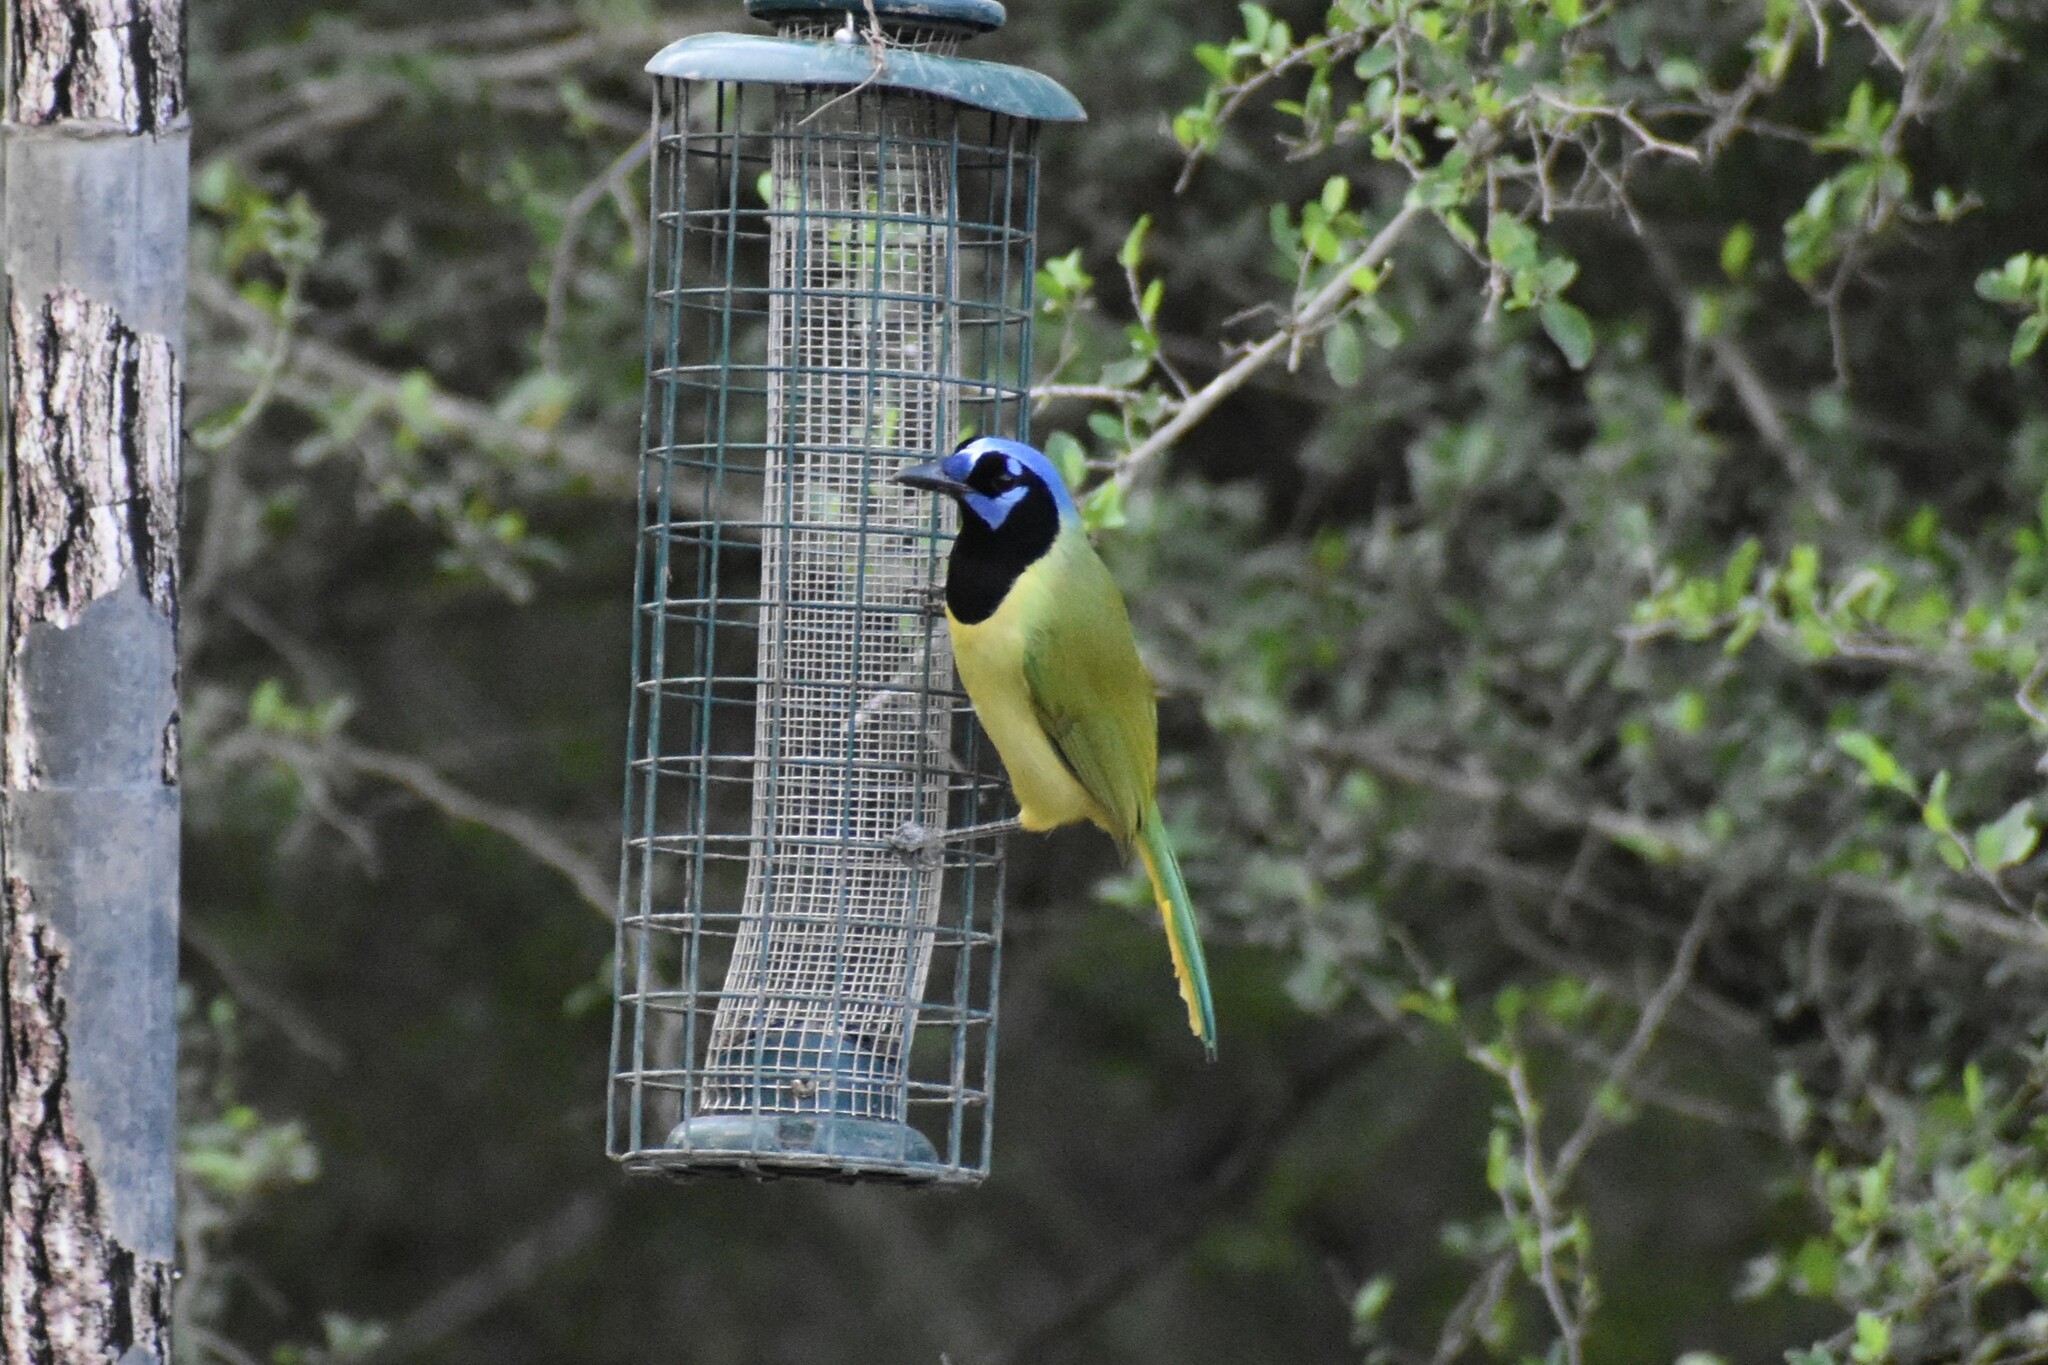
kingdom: Animalia
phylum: Chordata
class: Aves
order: Passeriformes
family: Corvidae
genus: Cyanocorax
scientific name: Cyanocorax yncas
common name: Green jay
